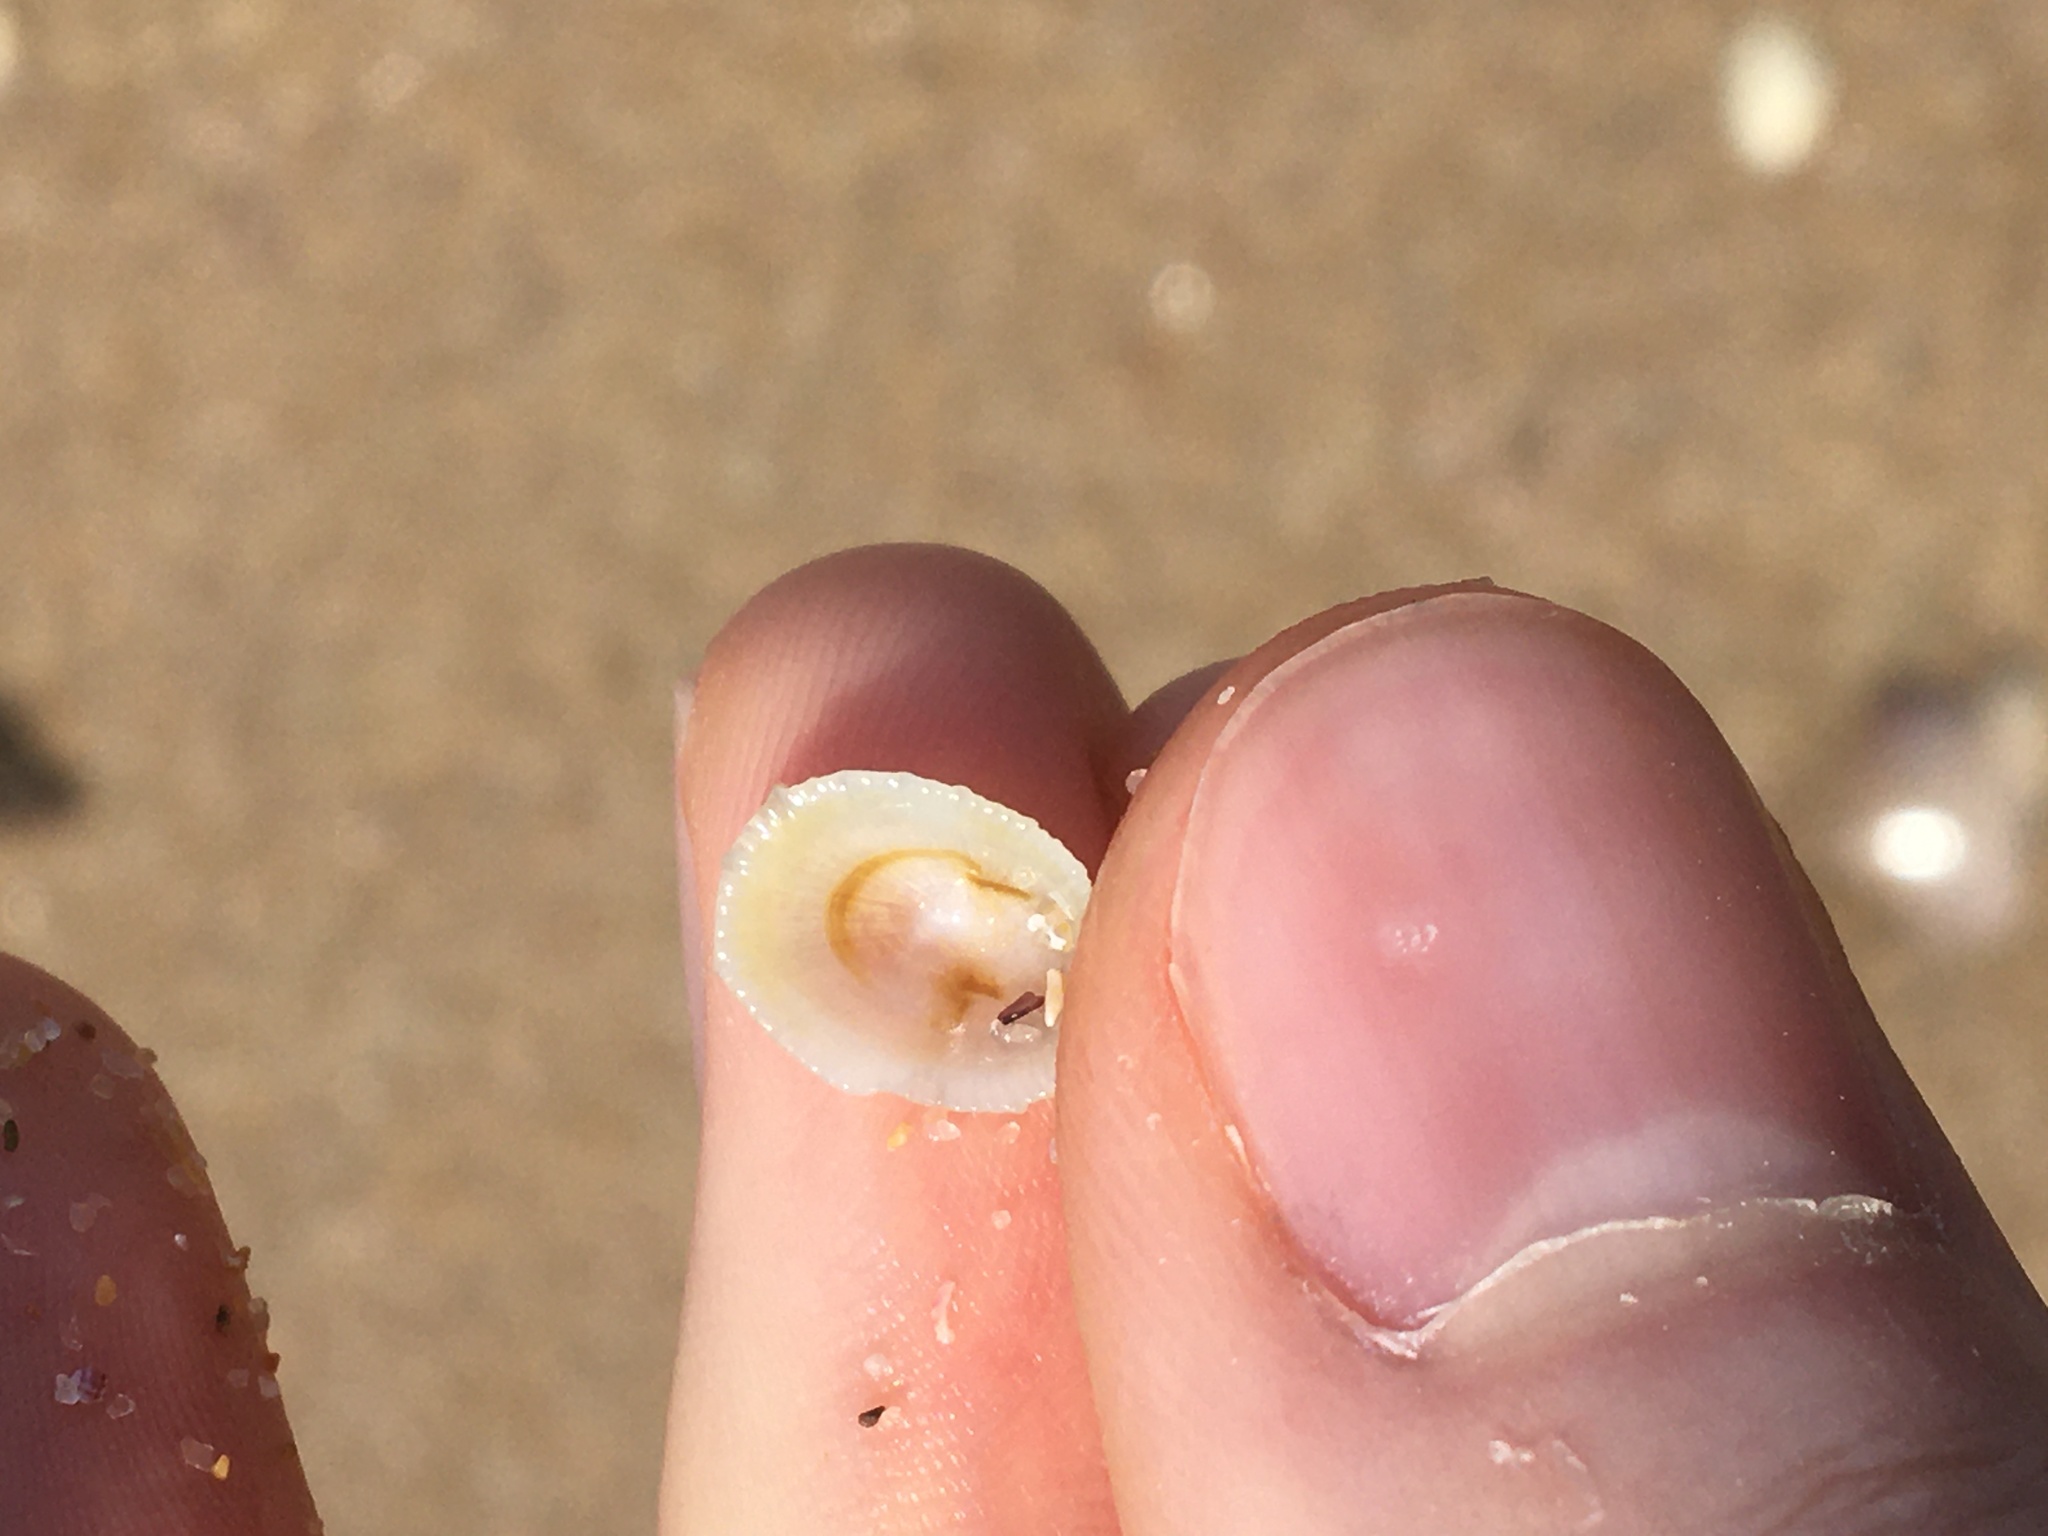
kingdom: Animalia
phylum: Mollusca
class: Gastropoda
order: Lepetellida
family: Fissurellidae
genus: Montfortula
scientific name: Montfortula rugosa
